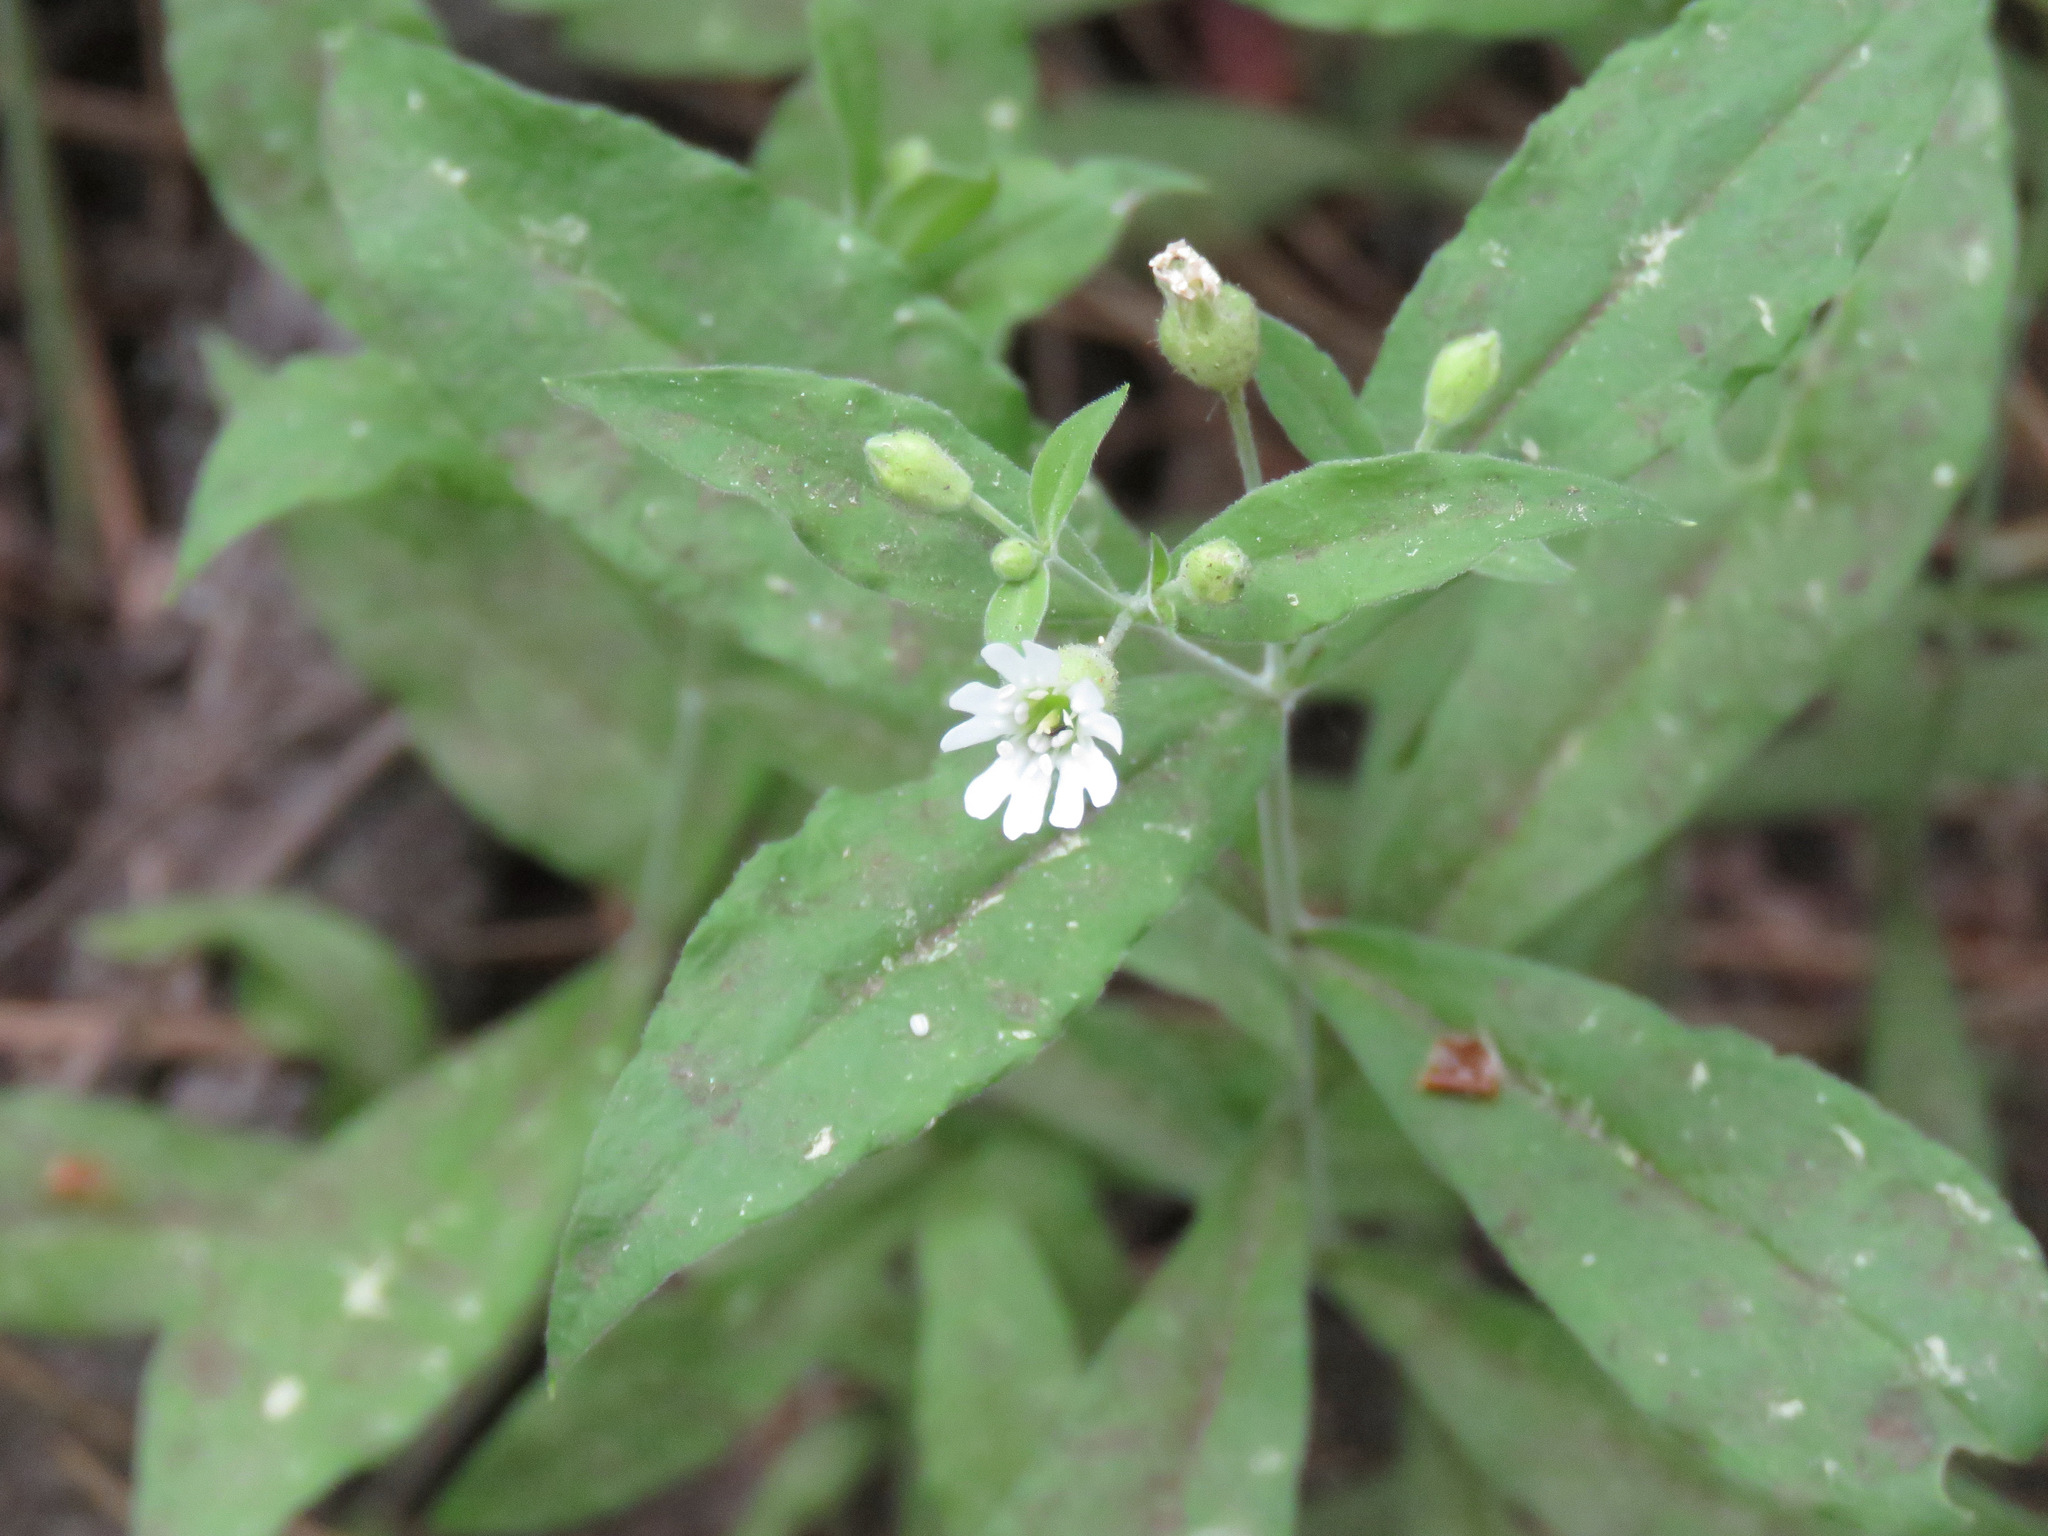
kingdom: Plantae
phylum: Tracheophyta
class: Magnoliopsida
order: Caryophyllales
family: Caryophyllaceae
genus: Silene
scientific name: Silene menziesii
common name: Menzies's catchfly
